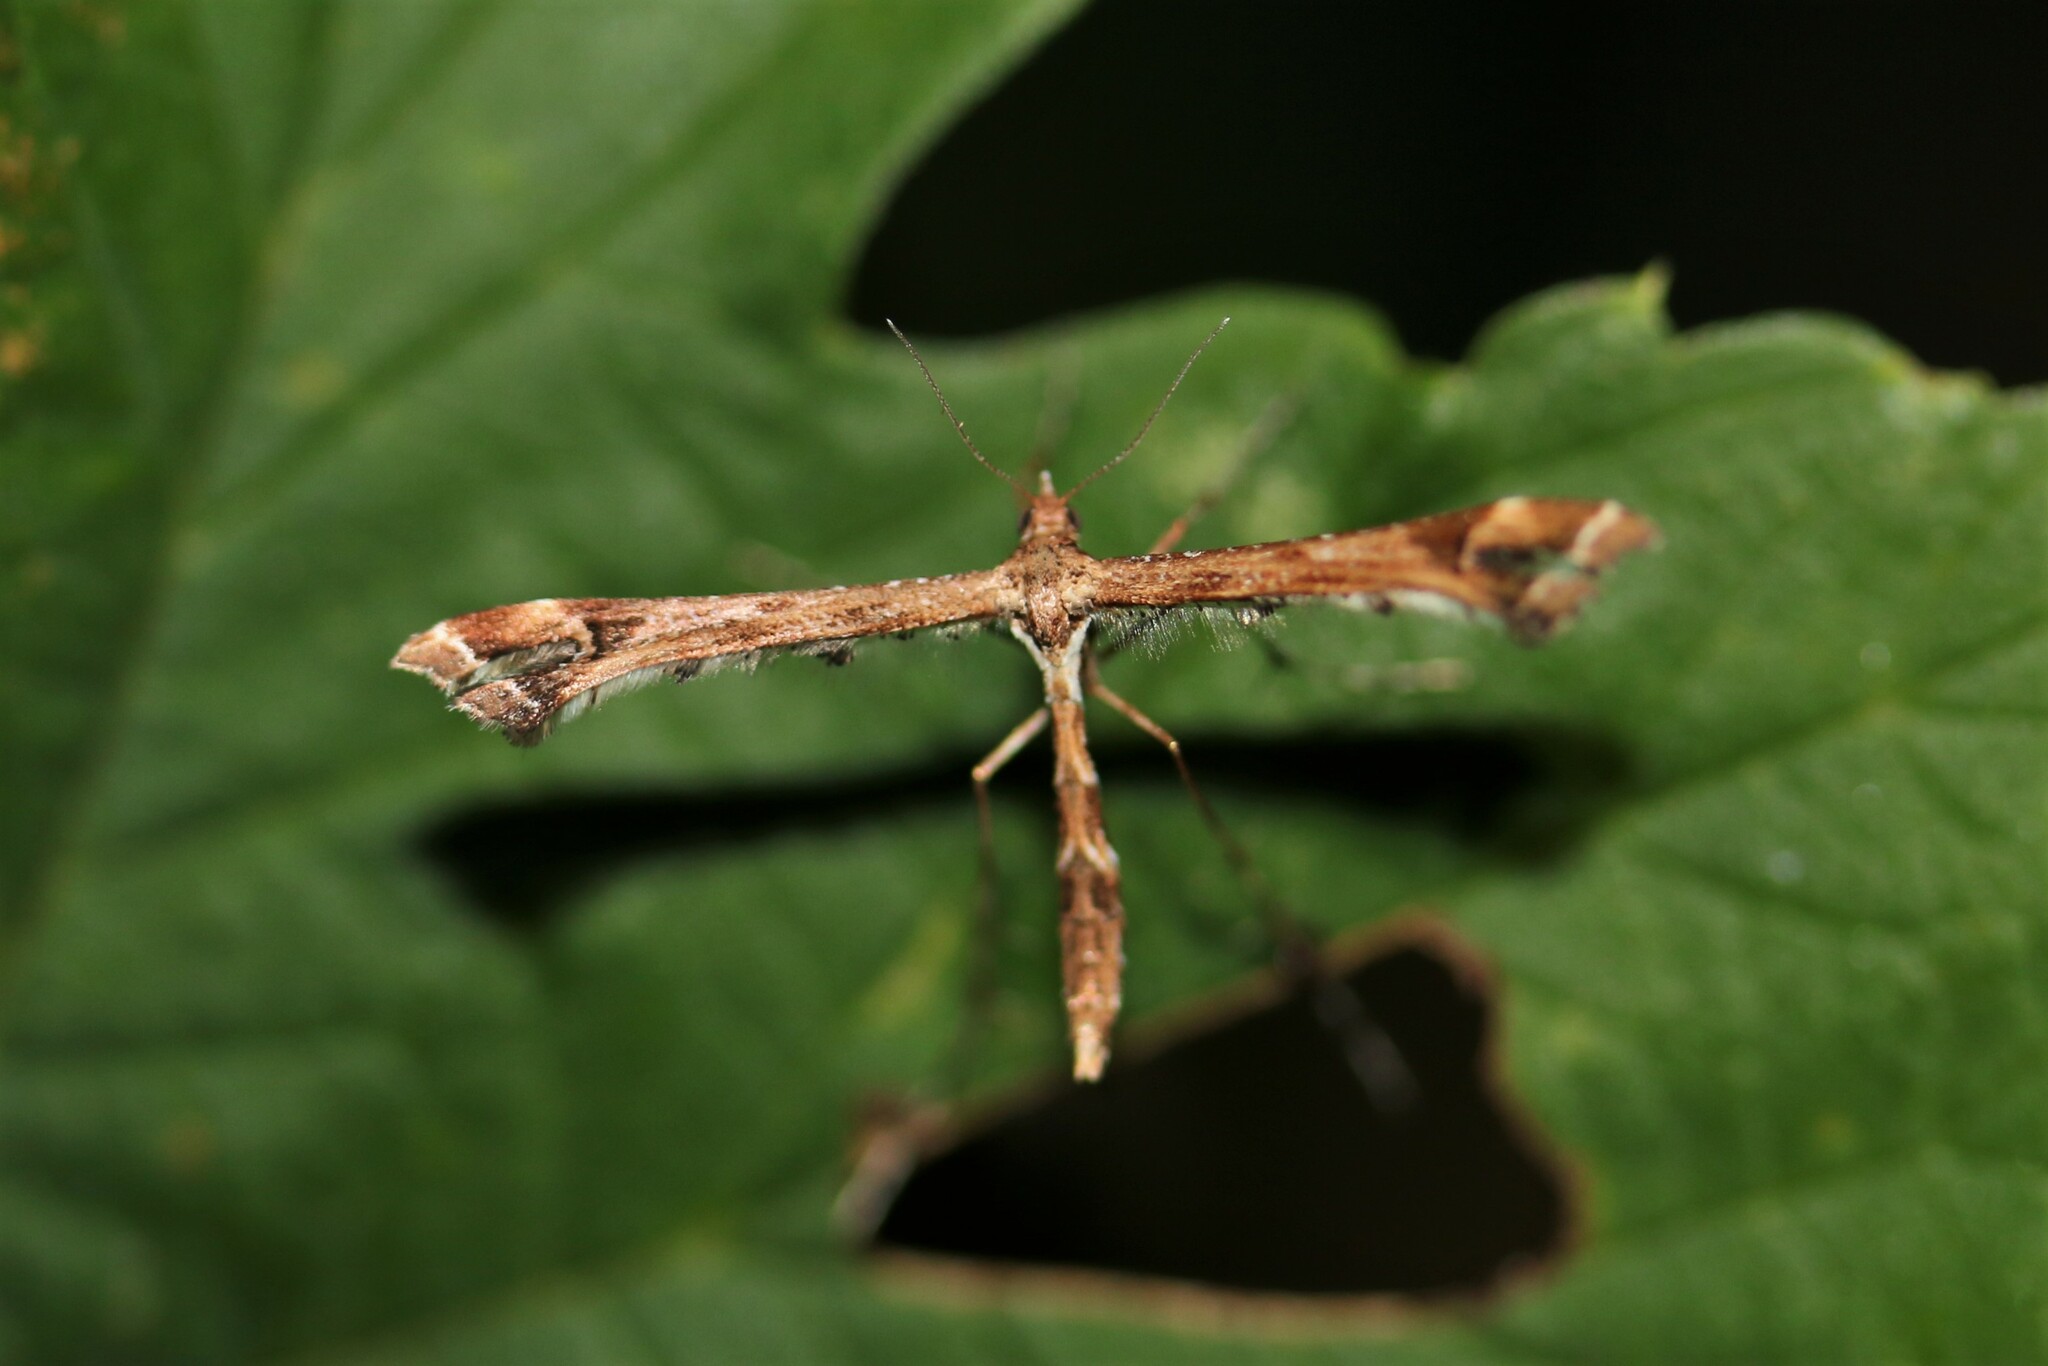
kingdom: Animalia
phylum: Arthropoda
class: Insecta
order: Lepidoptera
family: Pterophoridae
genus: Amblyptilia
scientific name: Amblyptilia acanthadactyla
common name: Beautiful plume
